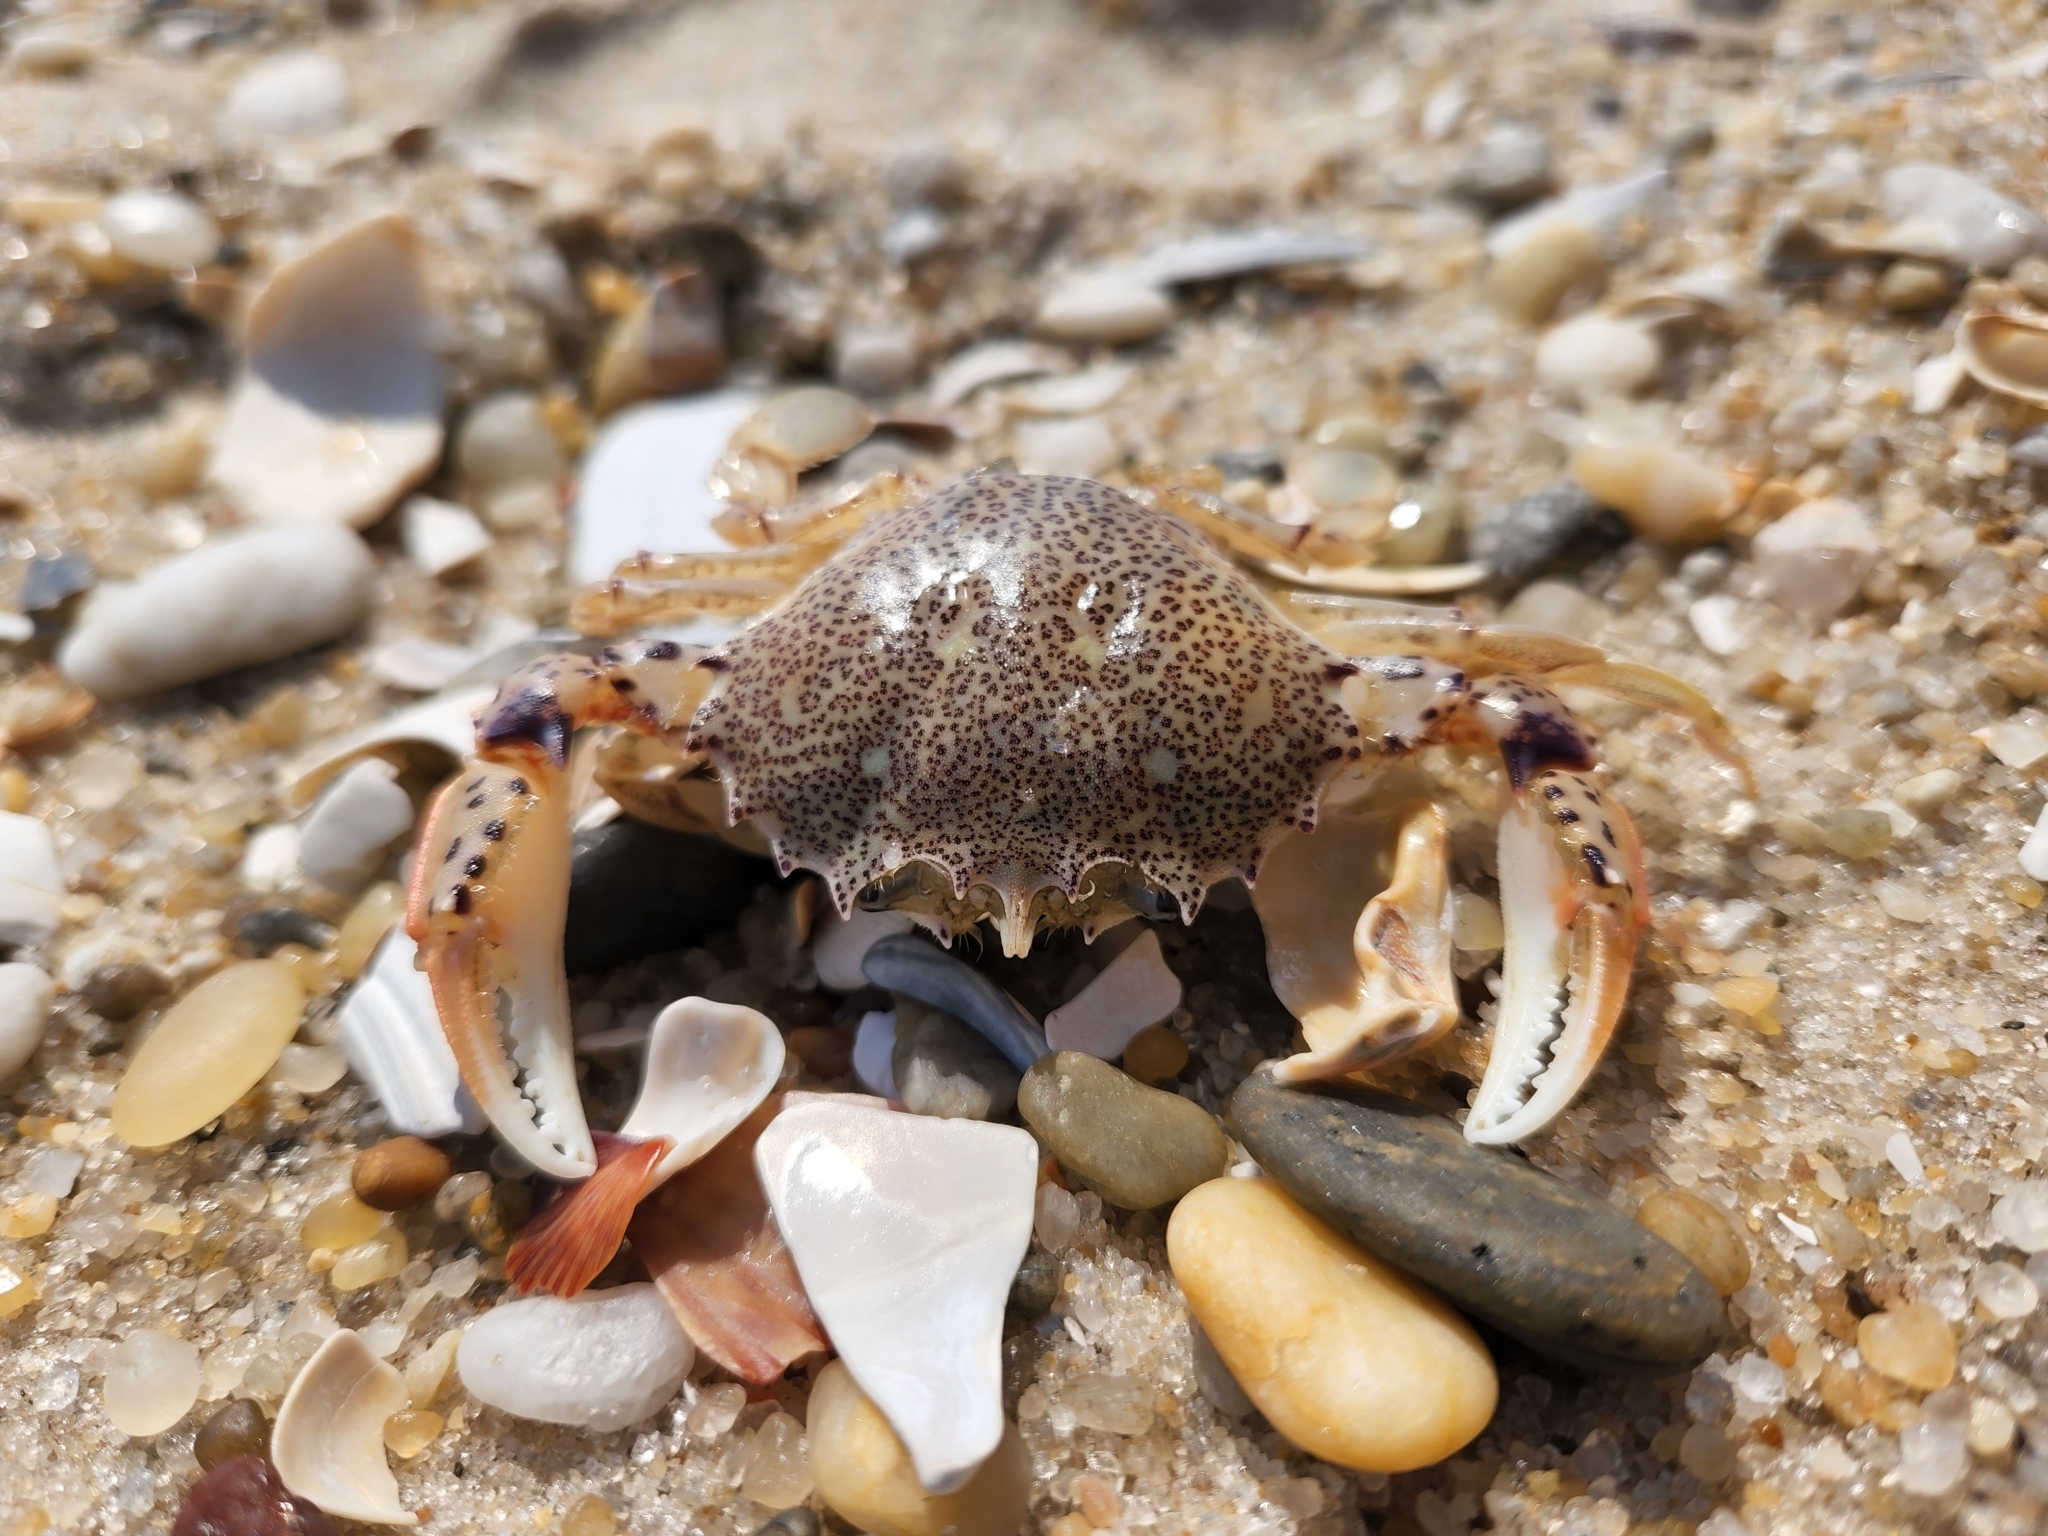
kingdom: Animalia
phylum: Arthropoda
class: Malacostraca
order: Decapoda
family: Ovalipidae
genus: Ovalipes
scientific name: Ovalipes ocellatus
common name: Lady crab
